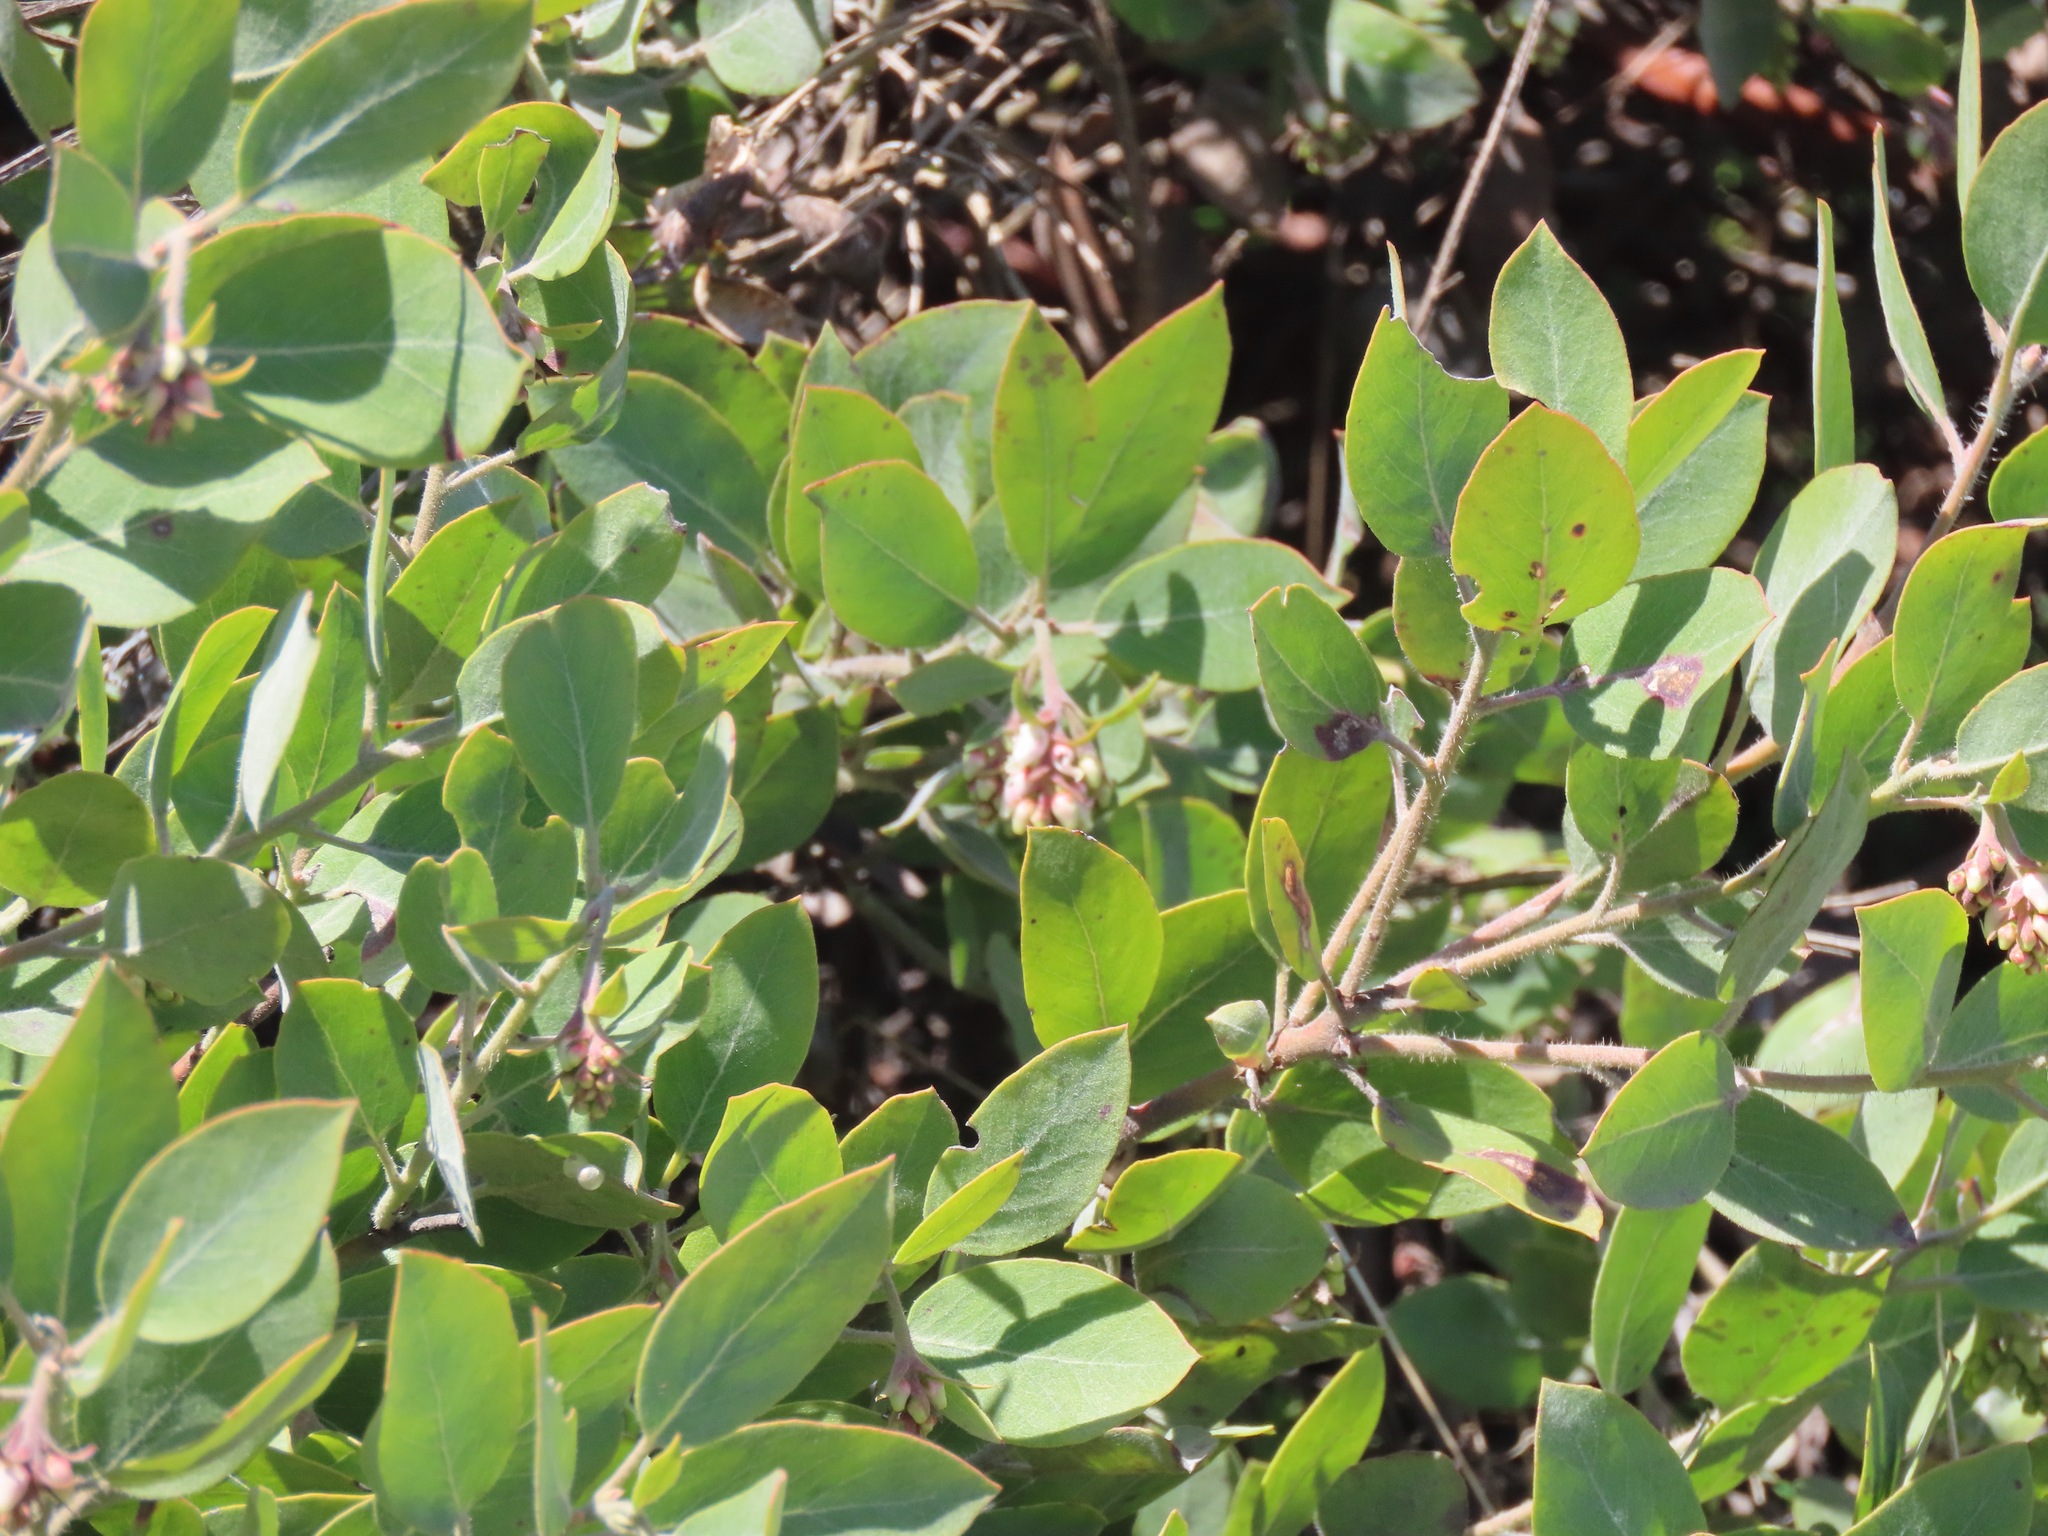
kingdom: Plantae
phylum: Tracheophyta
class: Magnoliopsida
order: Ericales
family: Ericaceae
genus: Arctostaphylos
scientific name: Arctostaphylos columbiana
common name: Bristly bearberry
